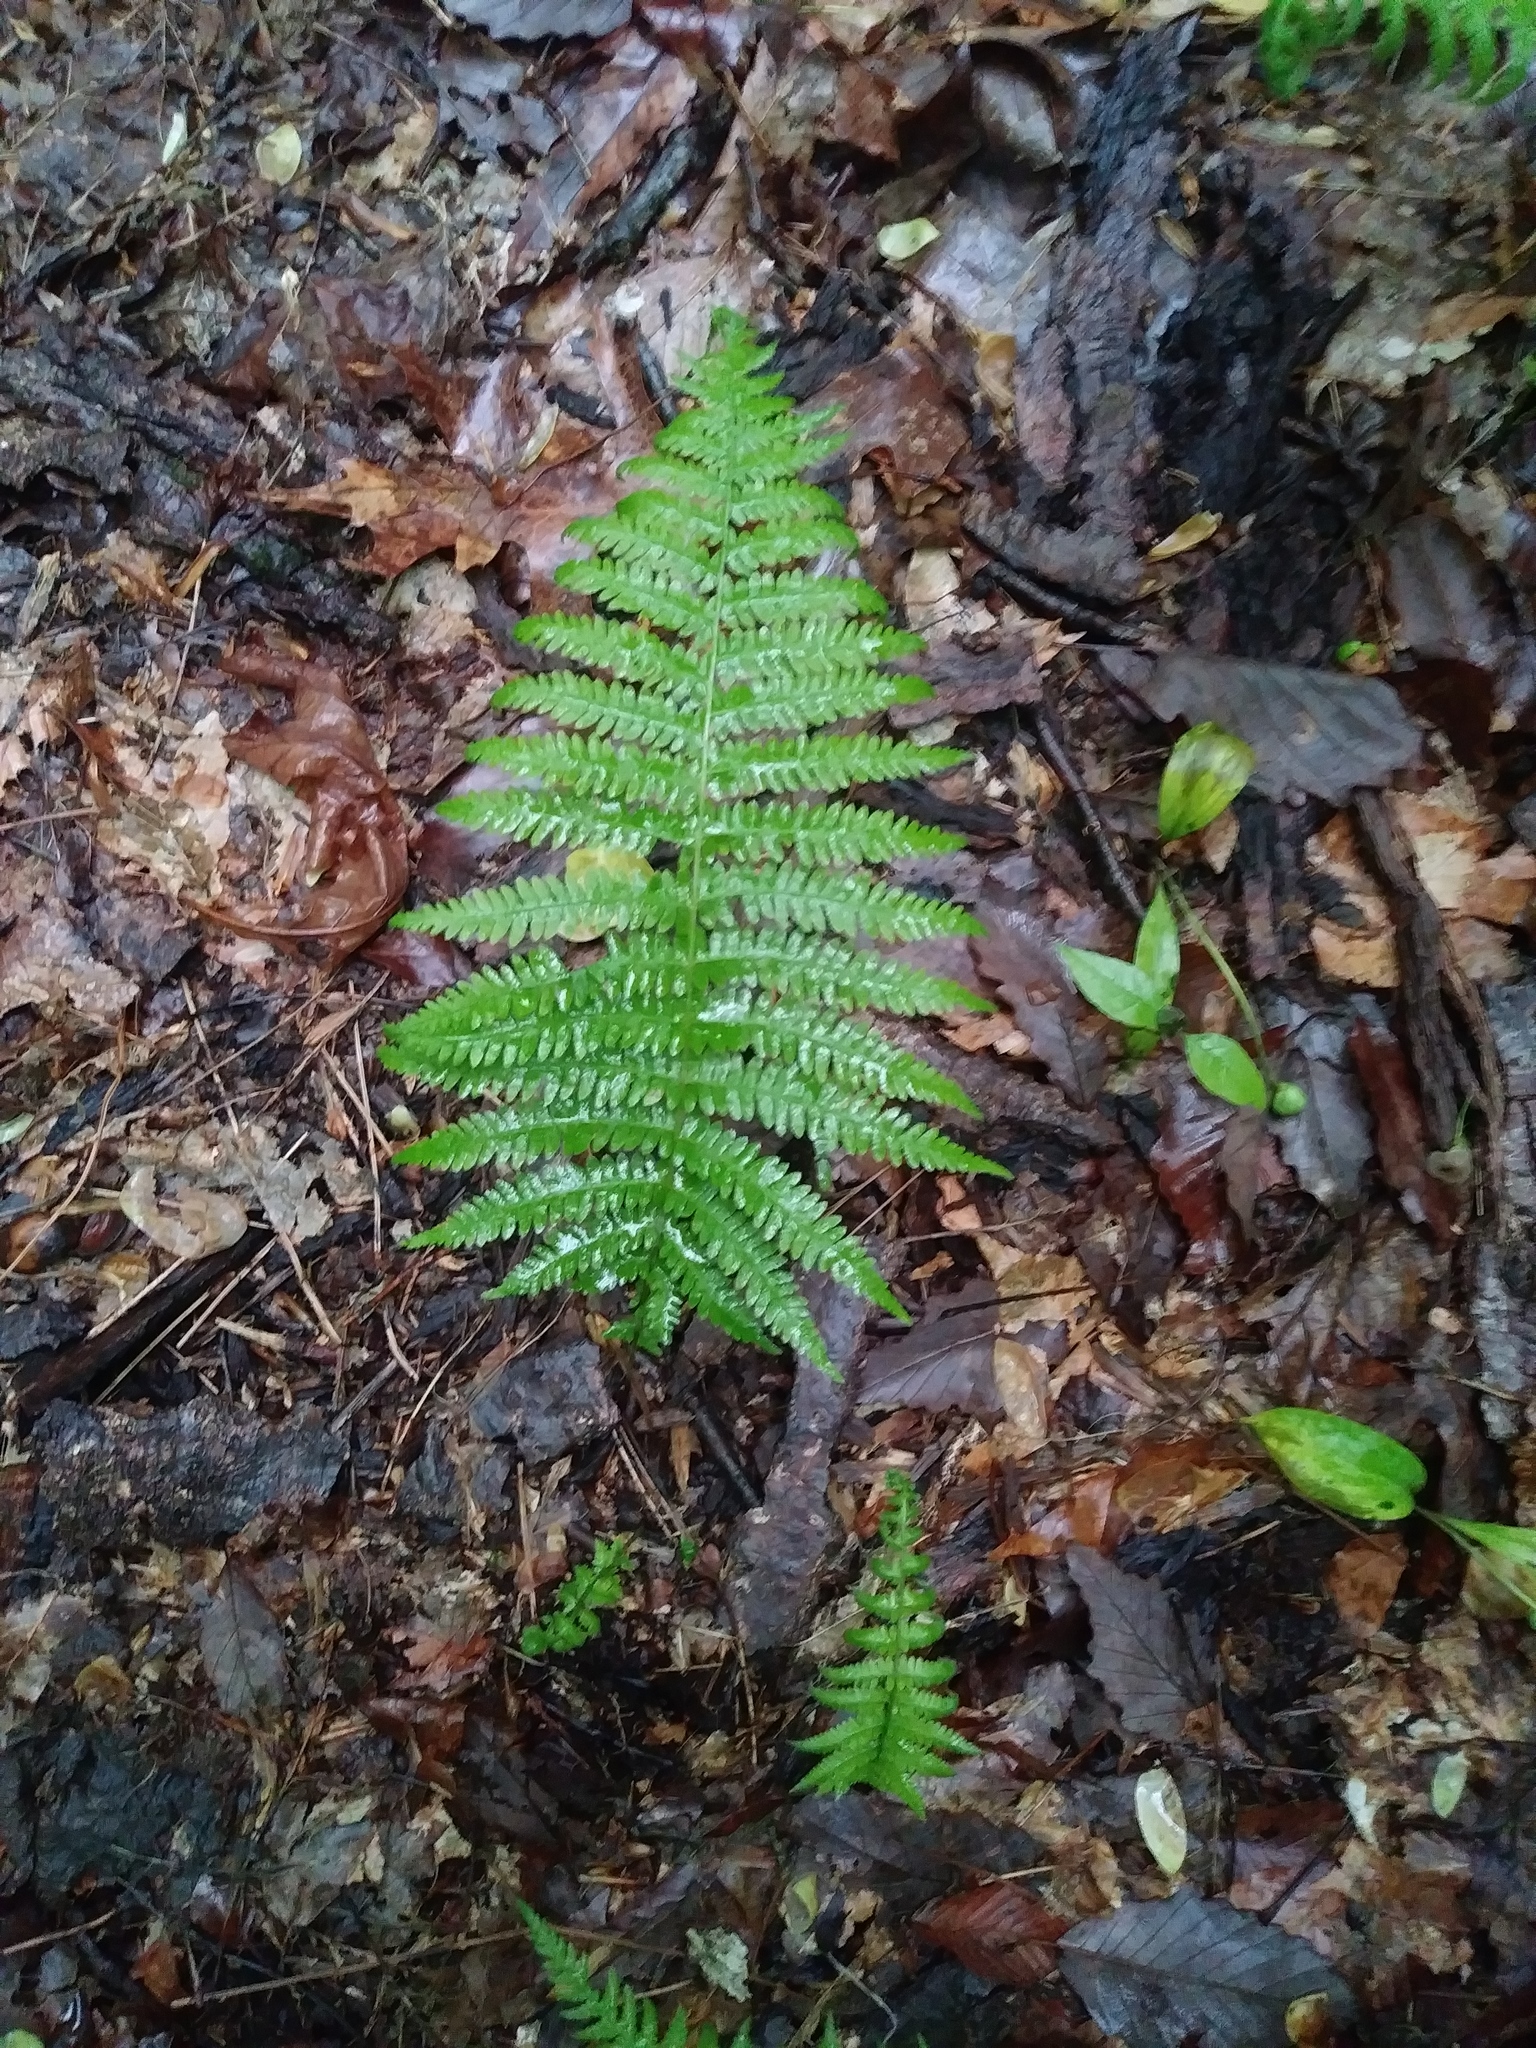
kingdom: Plantae
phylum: Tracheophyta
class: Polypodiopsida
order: Polypodiales
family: Thelypteridaceae
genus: Amauropelta
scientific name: Amauropelta noveboracensis
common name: New york fern
